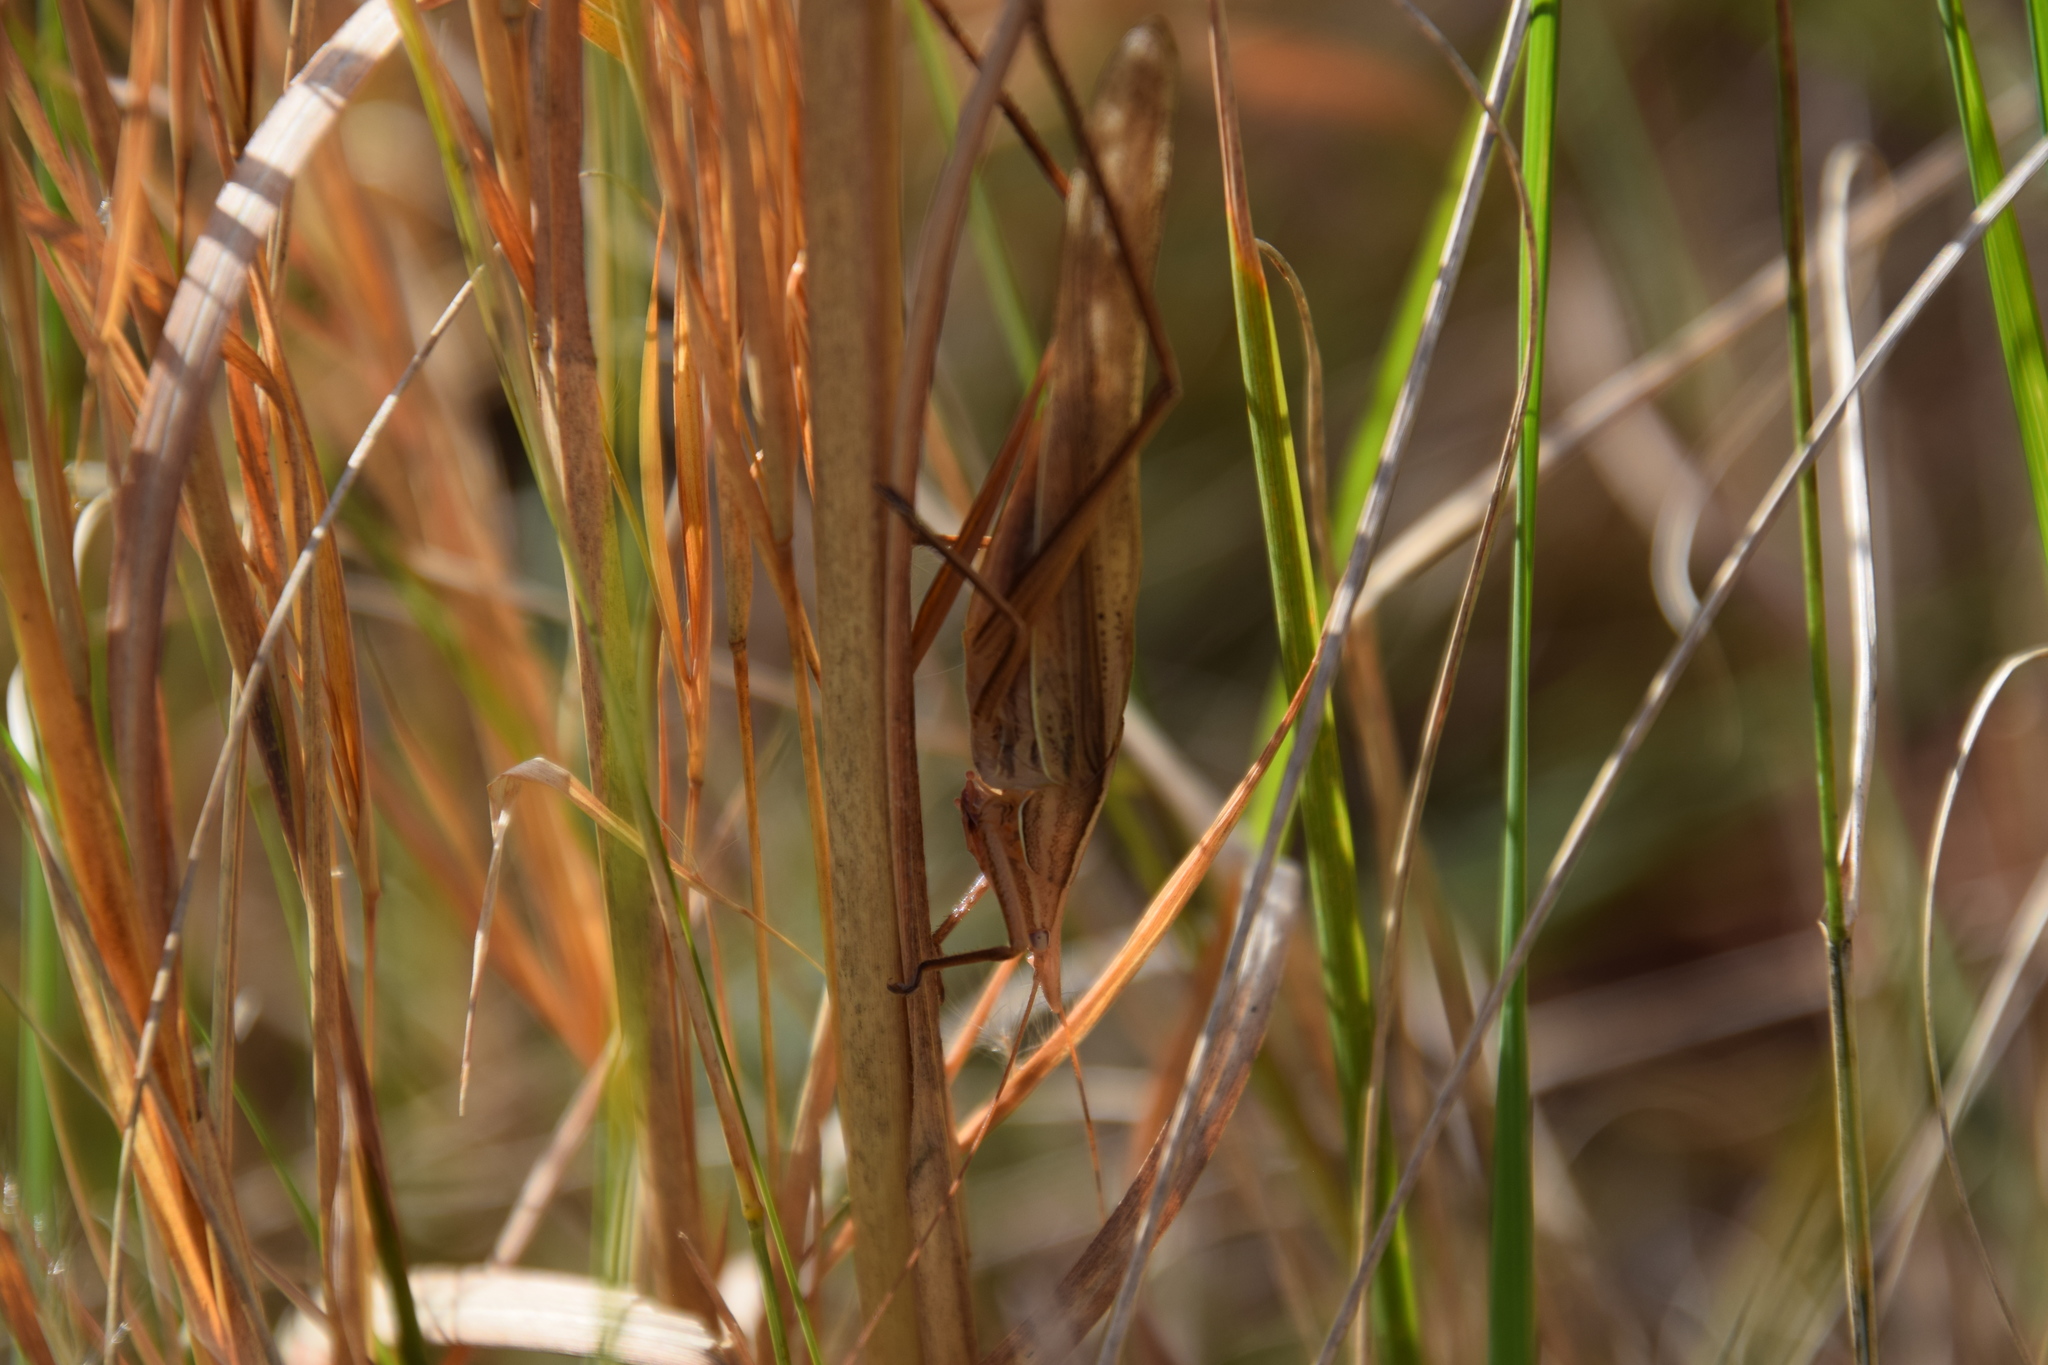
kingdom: Animalia
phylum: Arthropoda
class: Insecta
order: Orthoptera
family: Tettigoniidae
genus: Pseudorhynchus
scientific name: Pseudorhynchus lessonii
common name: Lesson's mimicking snout nose
